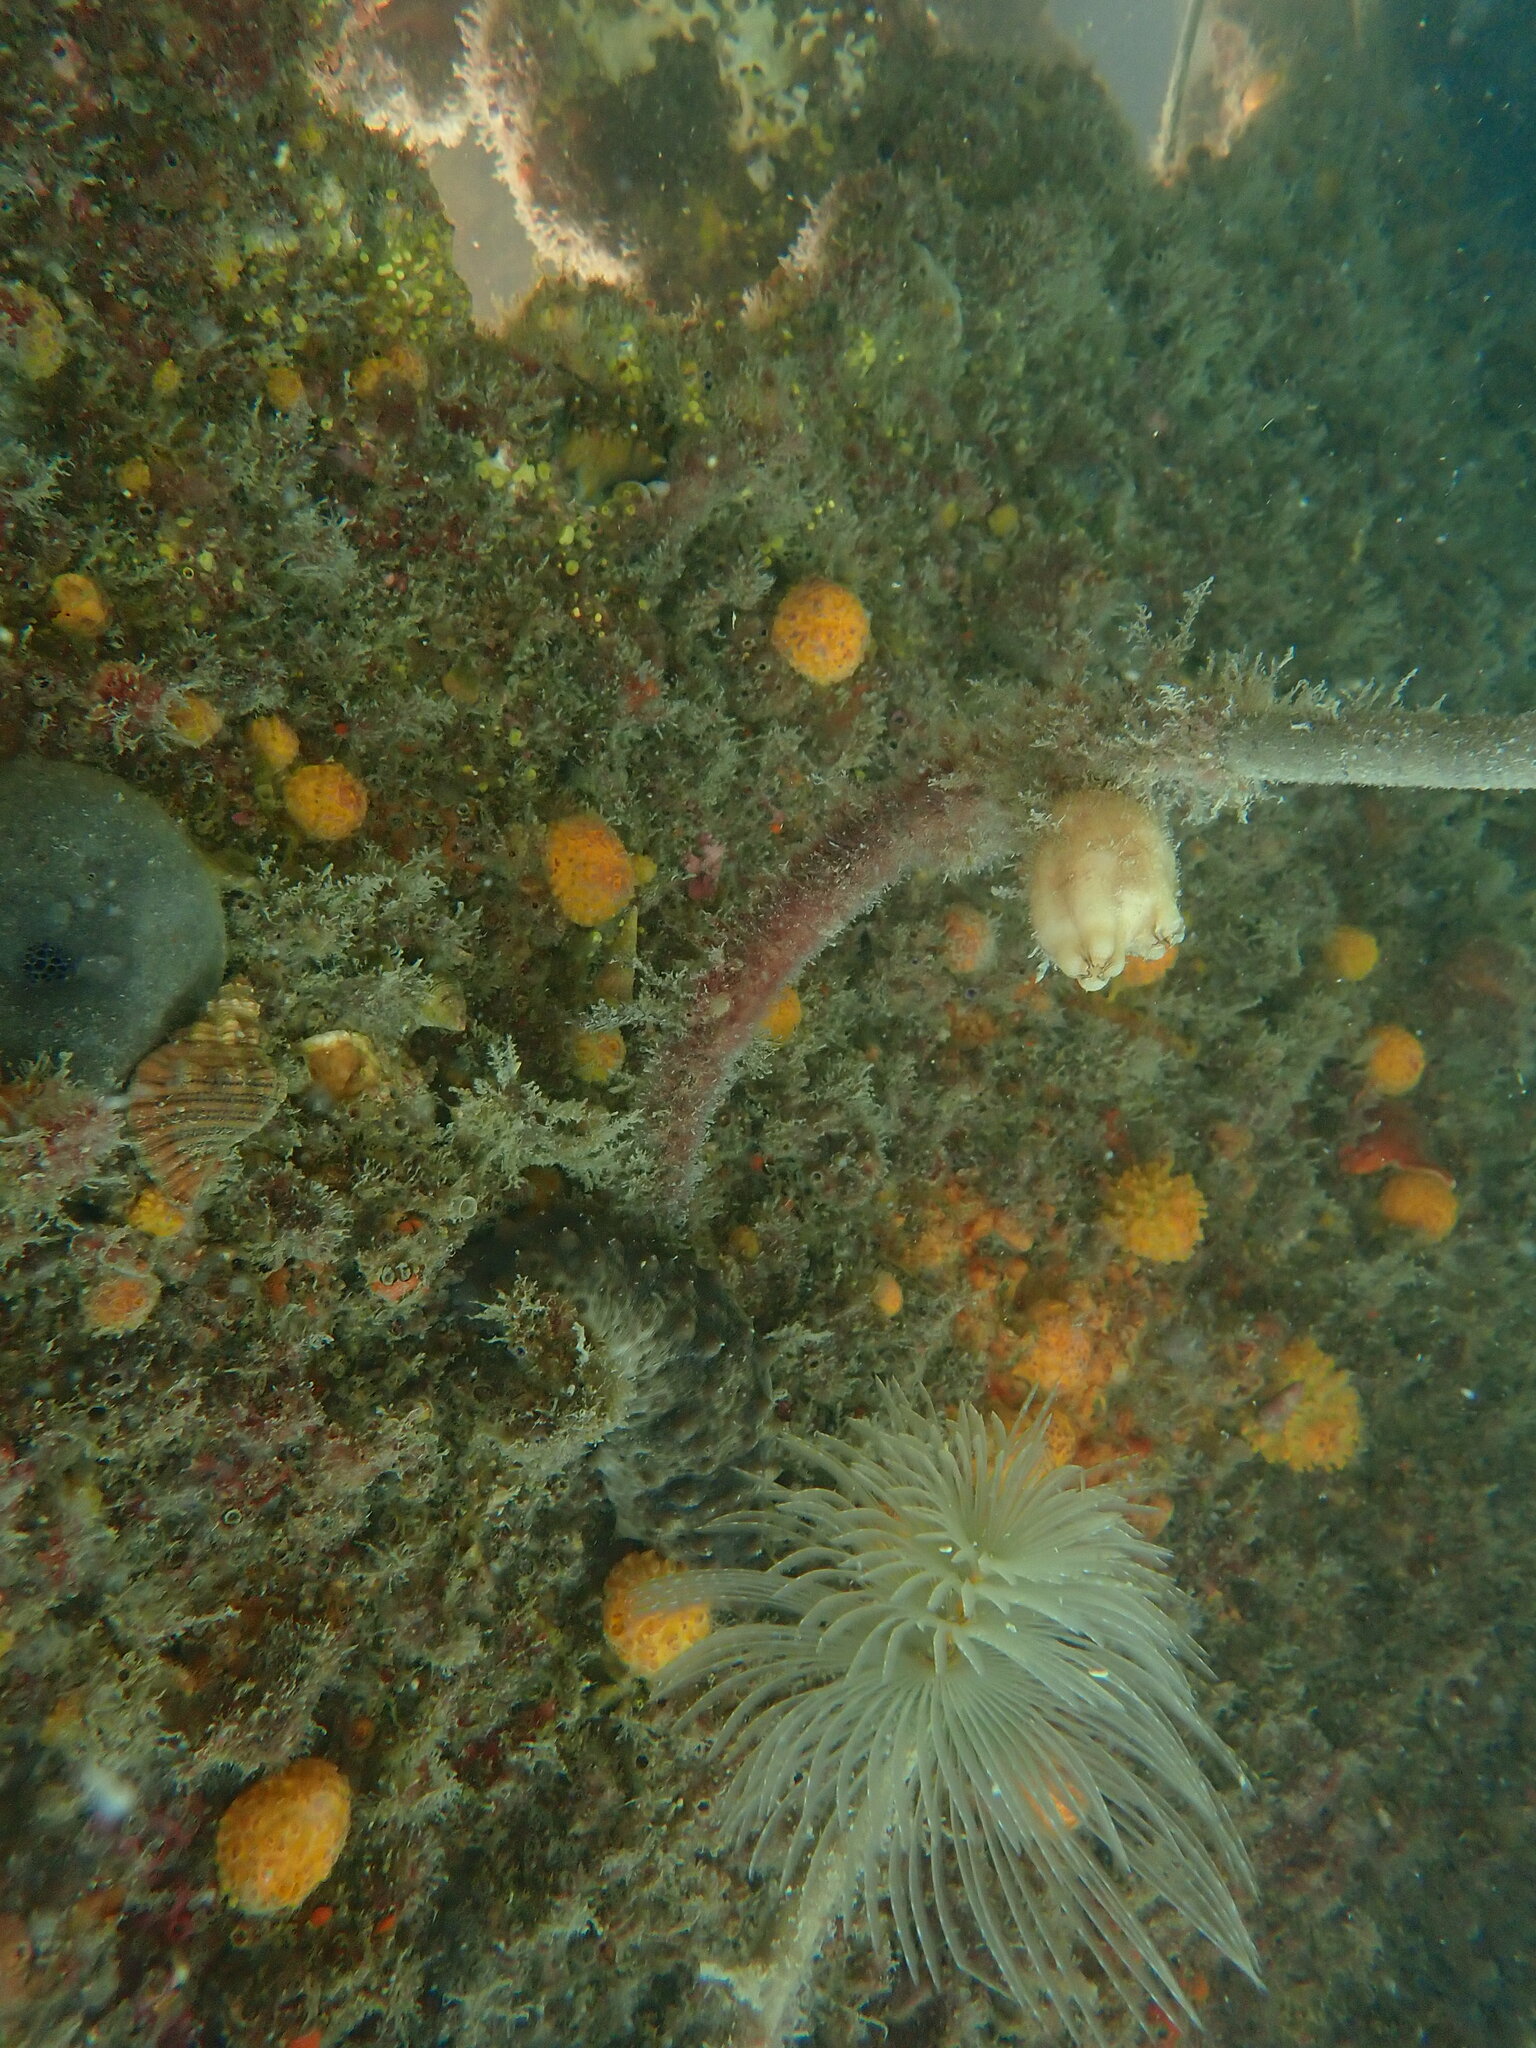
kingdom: Animalia
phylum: Annelida
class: Polychaeta
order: Sabellida
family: Sabellidae
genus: Sabella
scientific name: Sabella spallanzanii
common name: Feather duster worm
